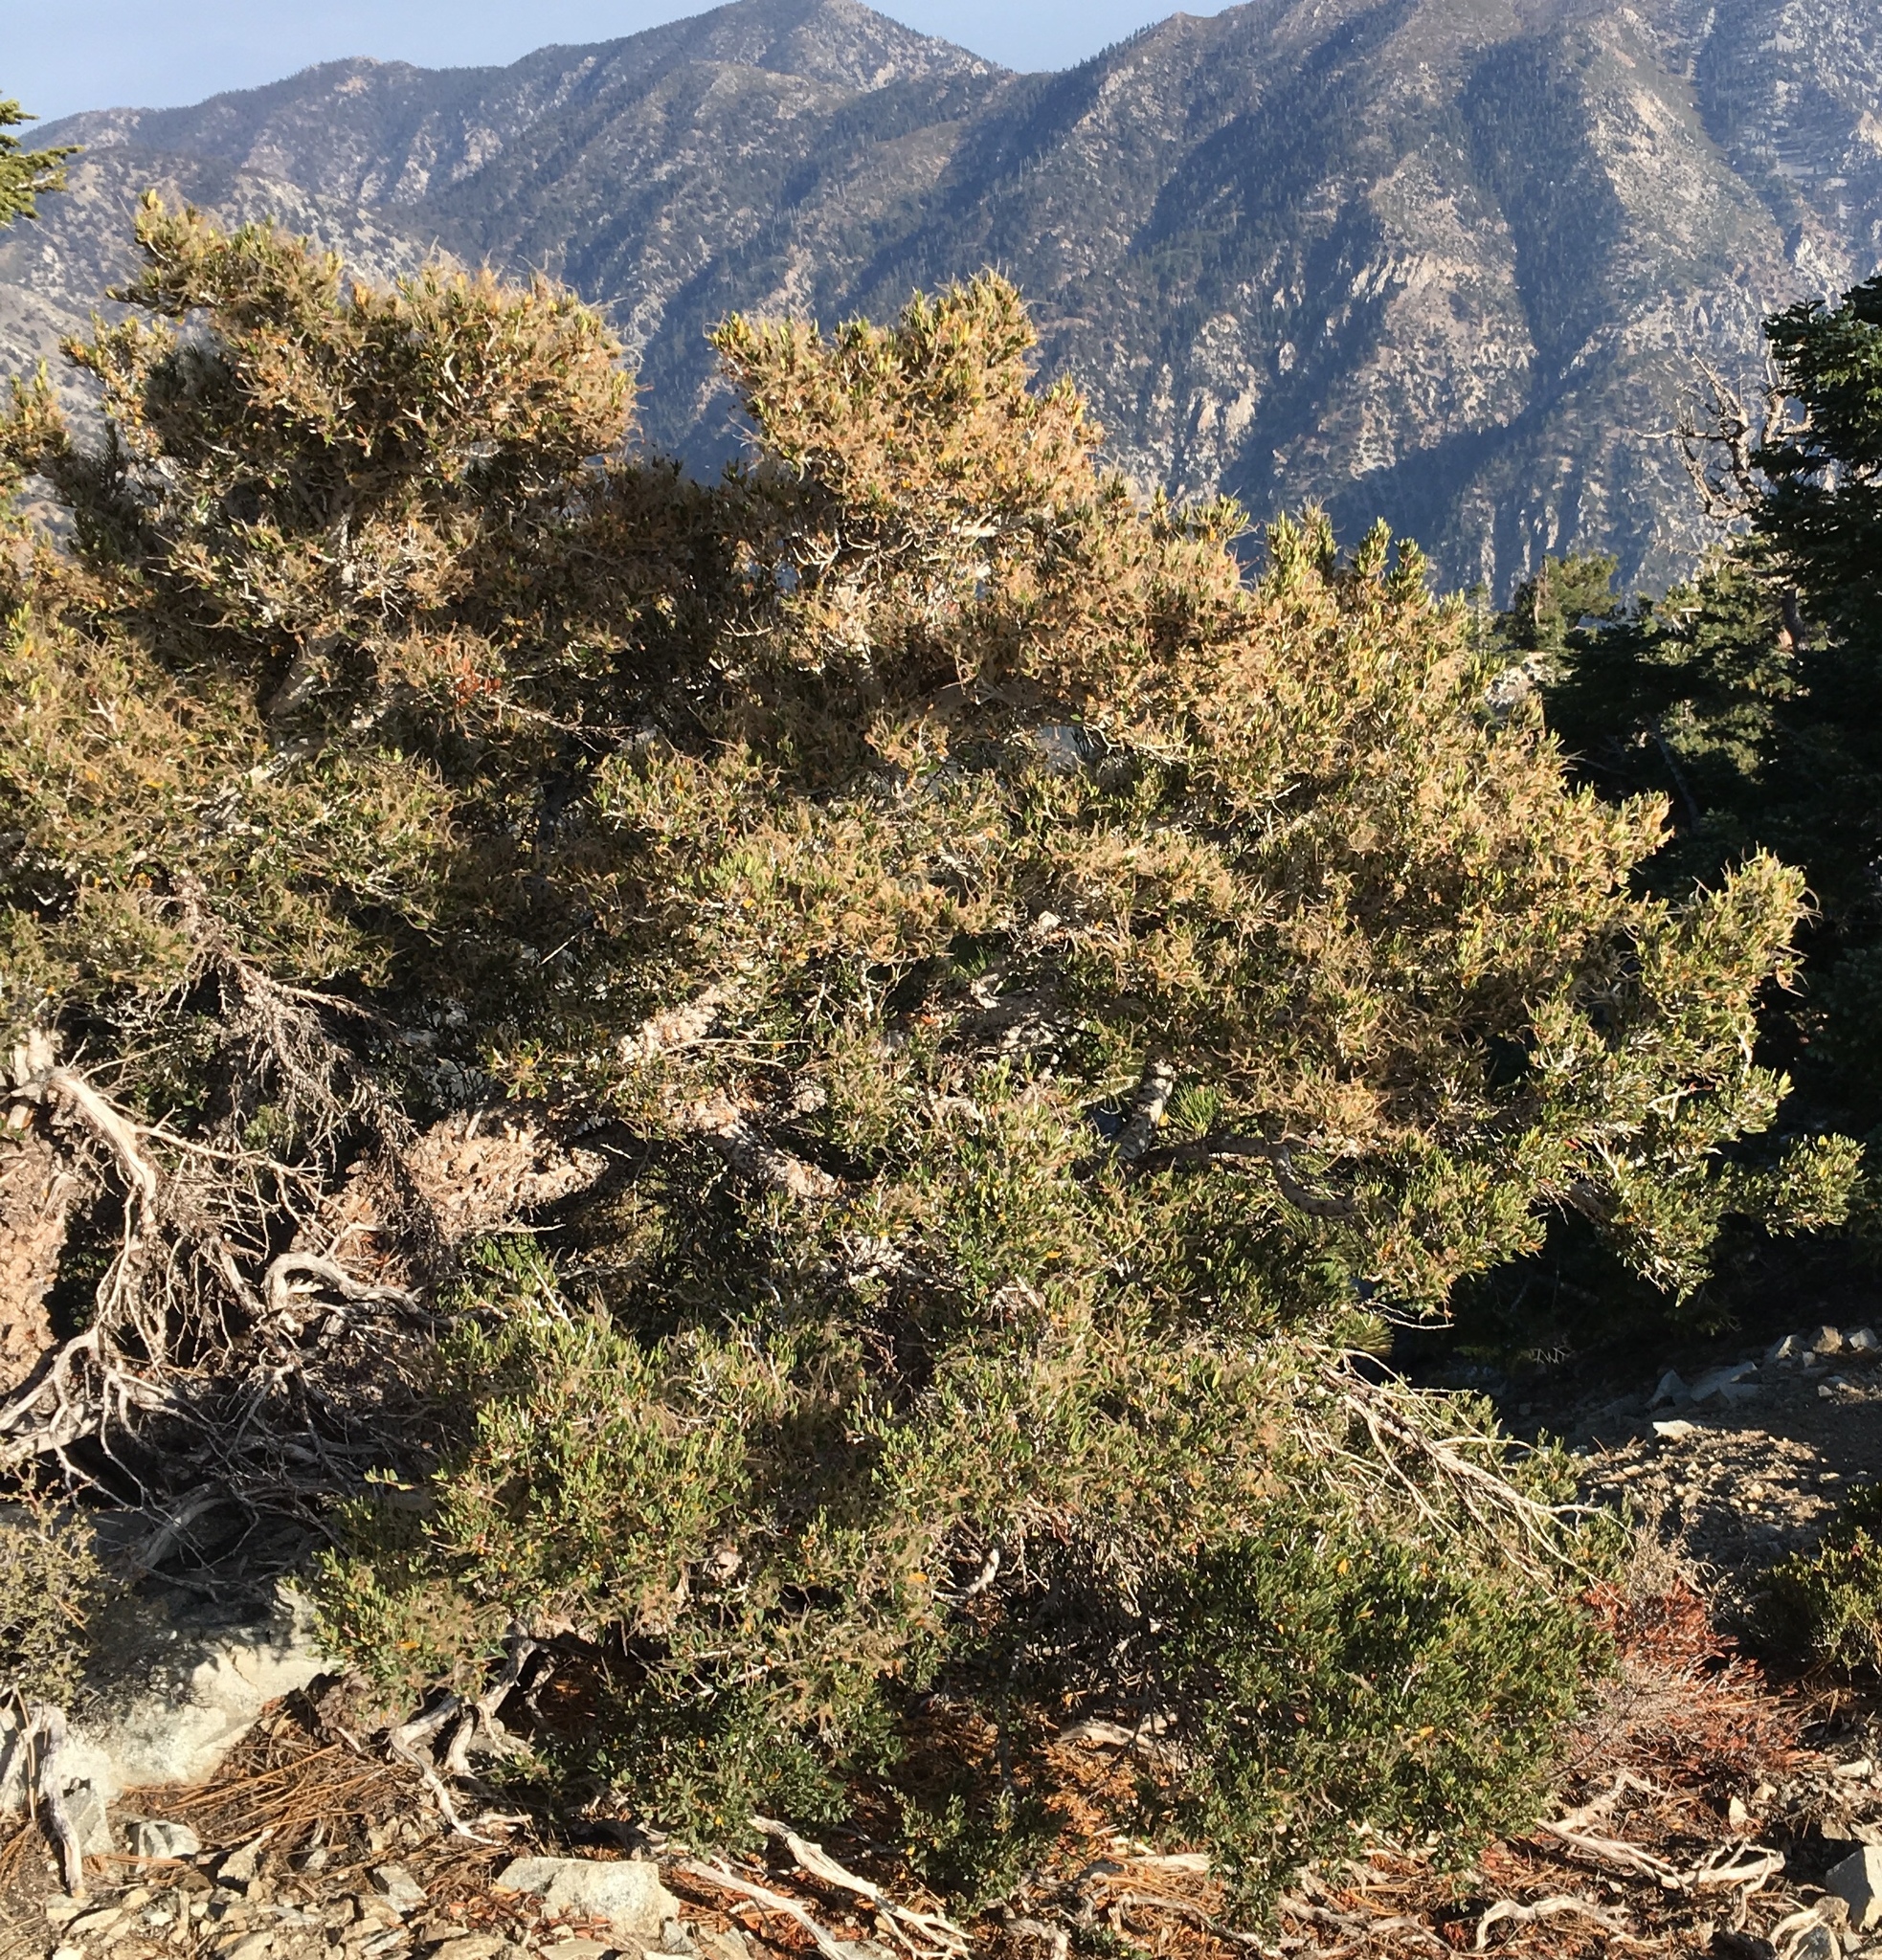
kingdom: Plantae
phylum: Tracheophyta
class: Magnoliopsida
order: Rosales
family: Rosaceae
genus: Cercocarpus
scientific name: Cercocarpus ledifolius
